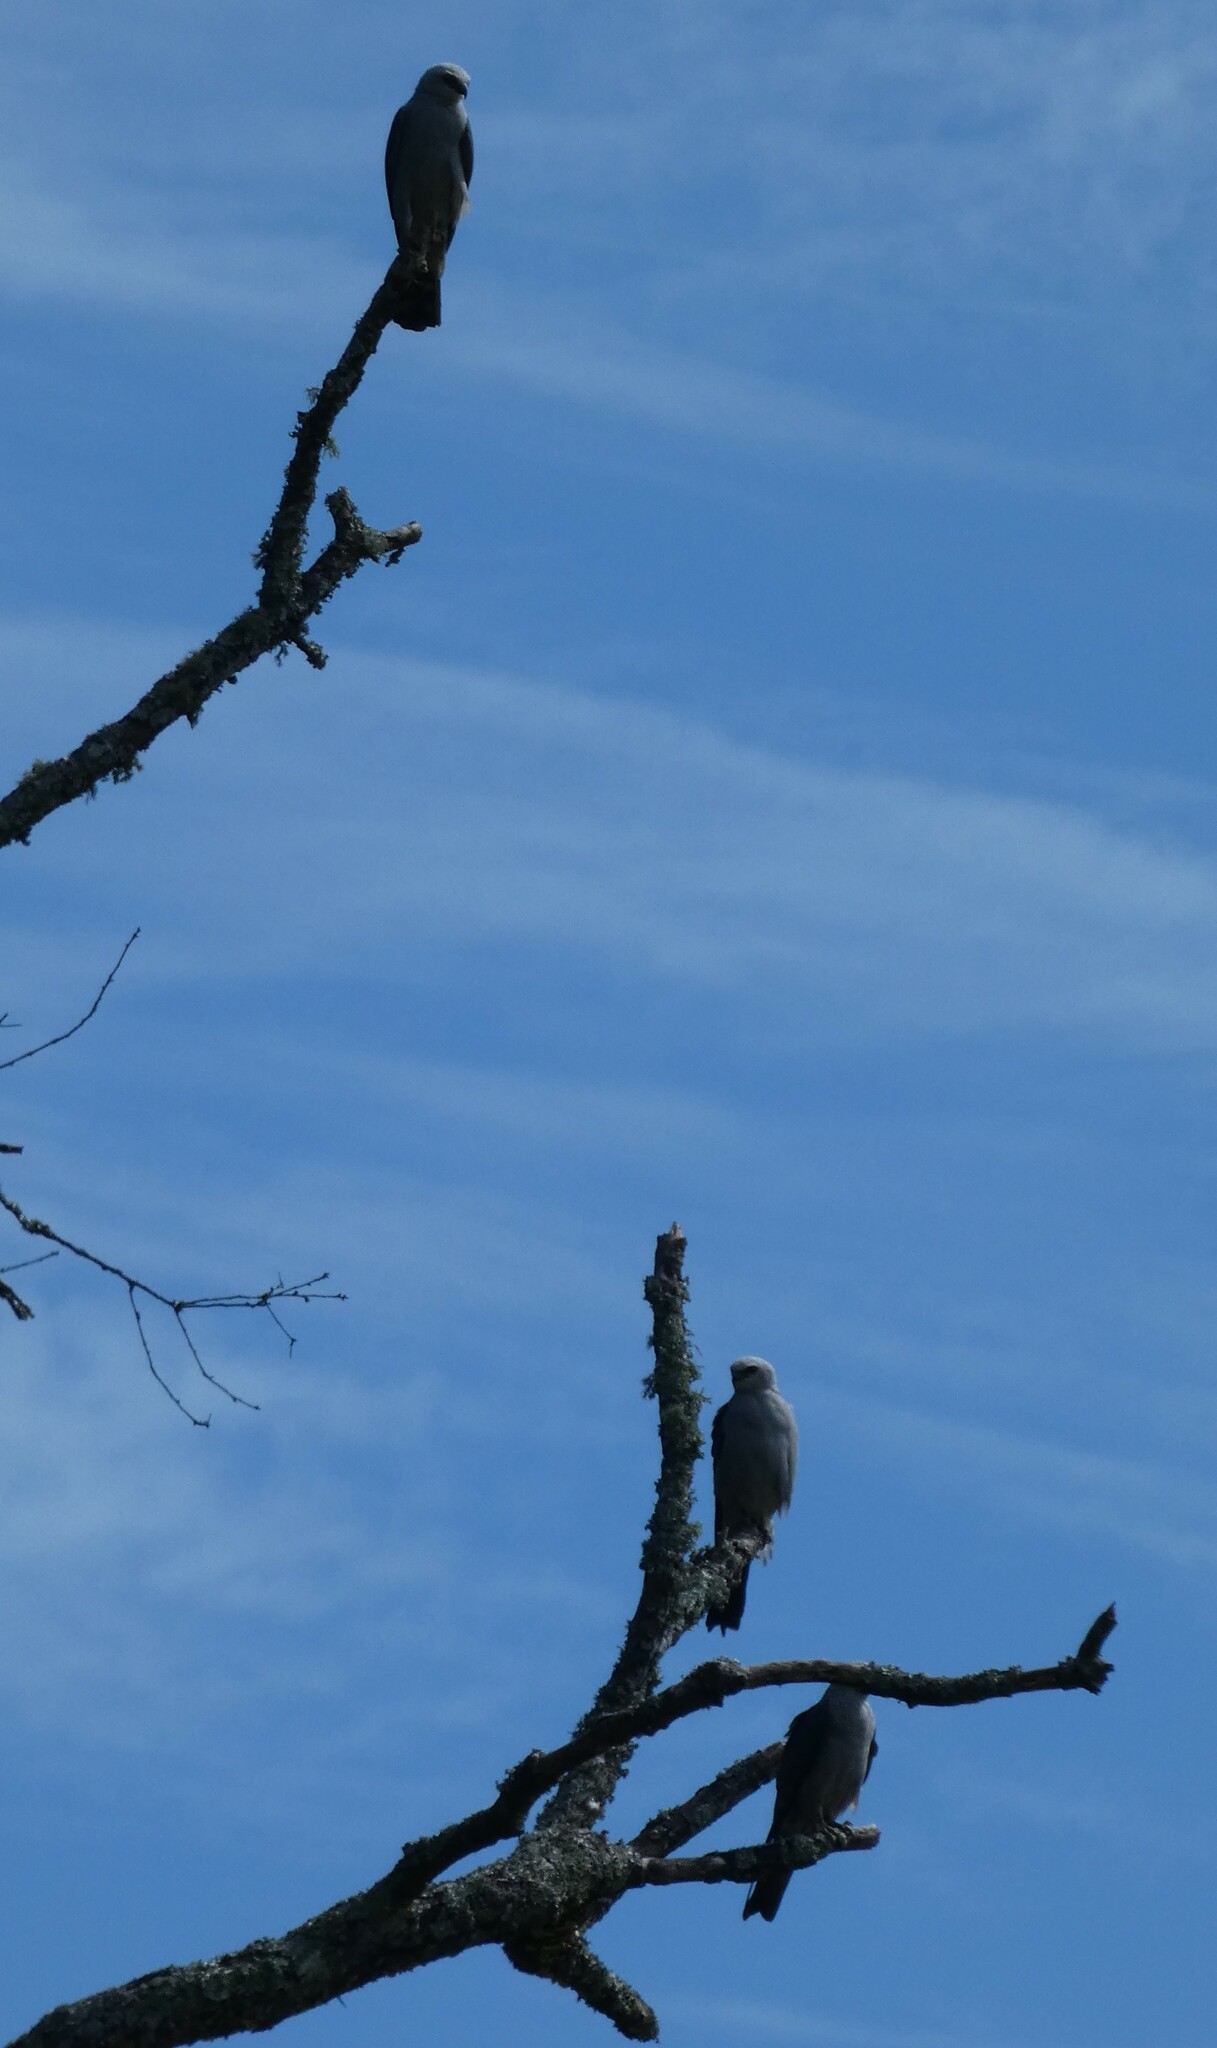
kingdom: Animalia
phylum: Chordata
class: Aves
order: Accipitriformes
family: Accipitridae
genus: Ictinia
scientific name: Ictinia mississippiensis
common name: Mississippi kite
